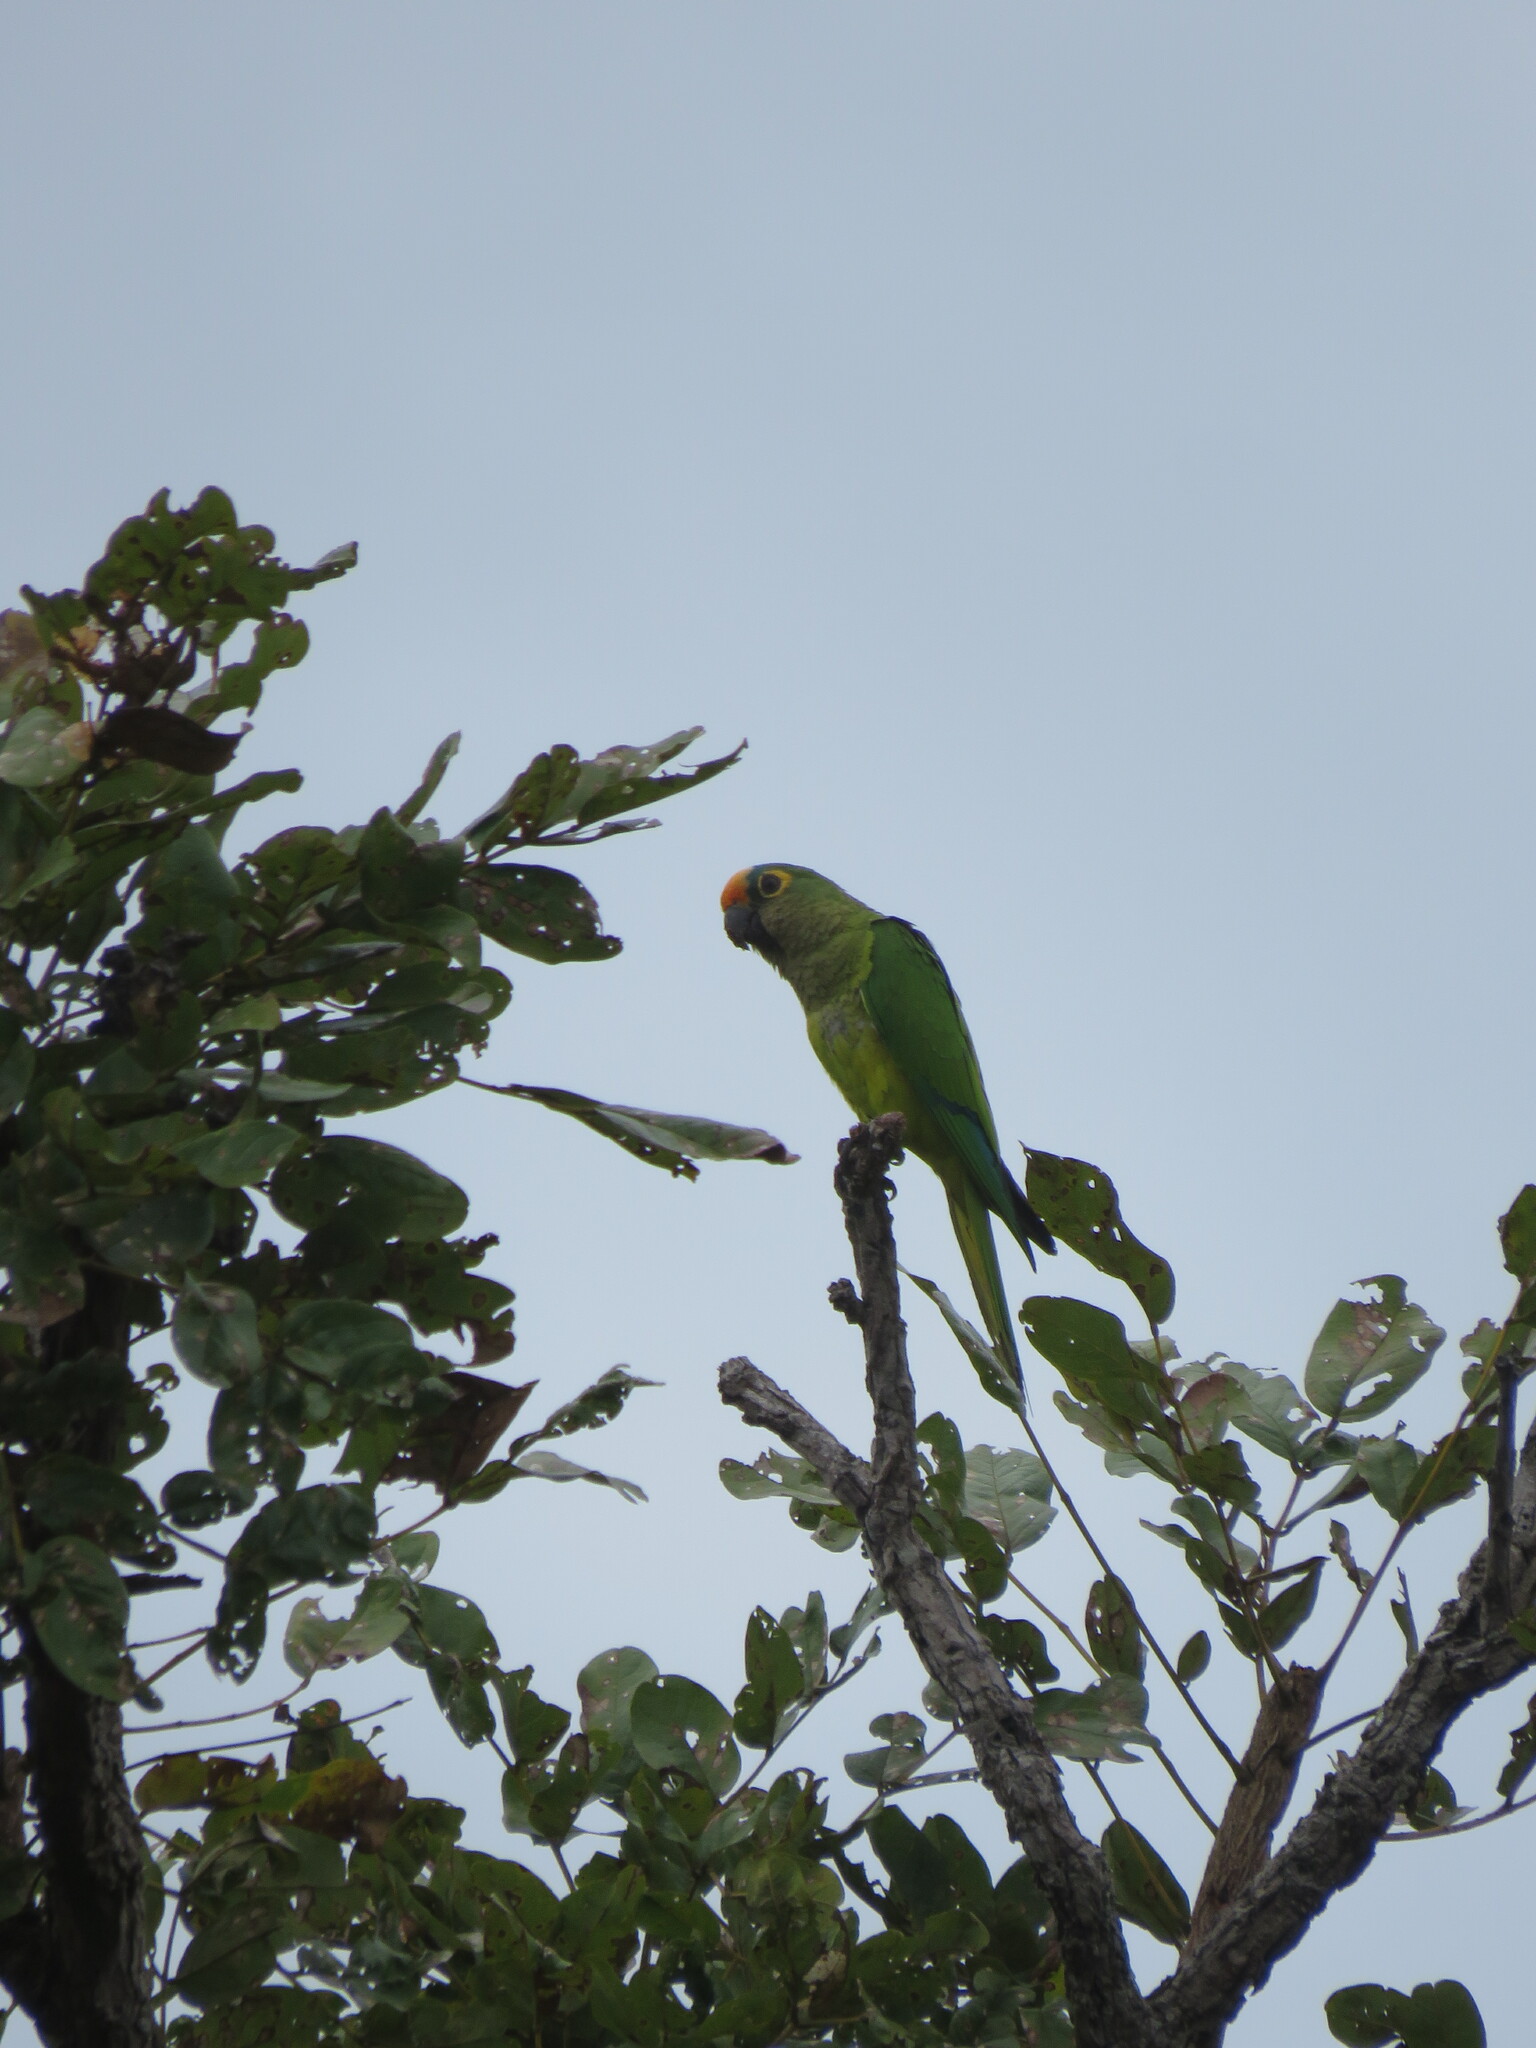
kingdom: Animalia
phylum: Chordata
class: Aves
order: Psittaciformes
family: Psittacidae
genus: Aratinga
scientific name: Aratinga aurea
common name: Peach-fronted parakeet
